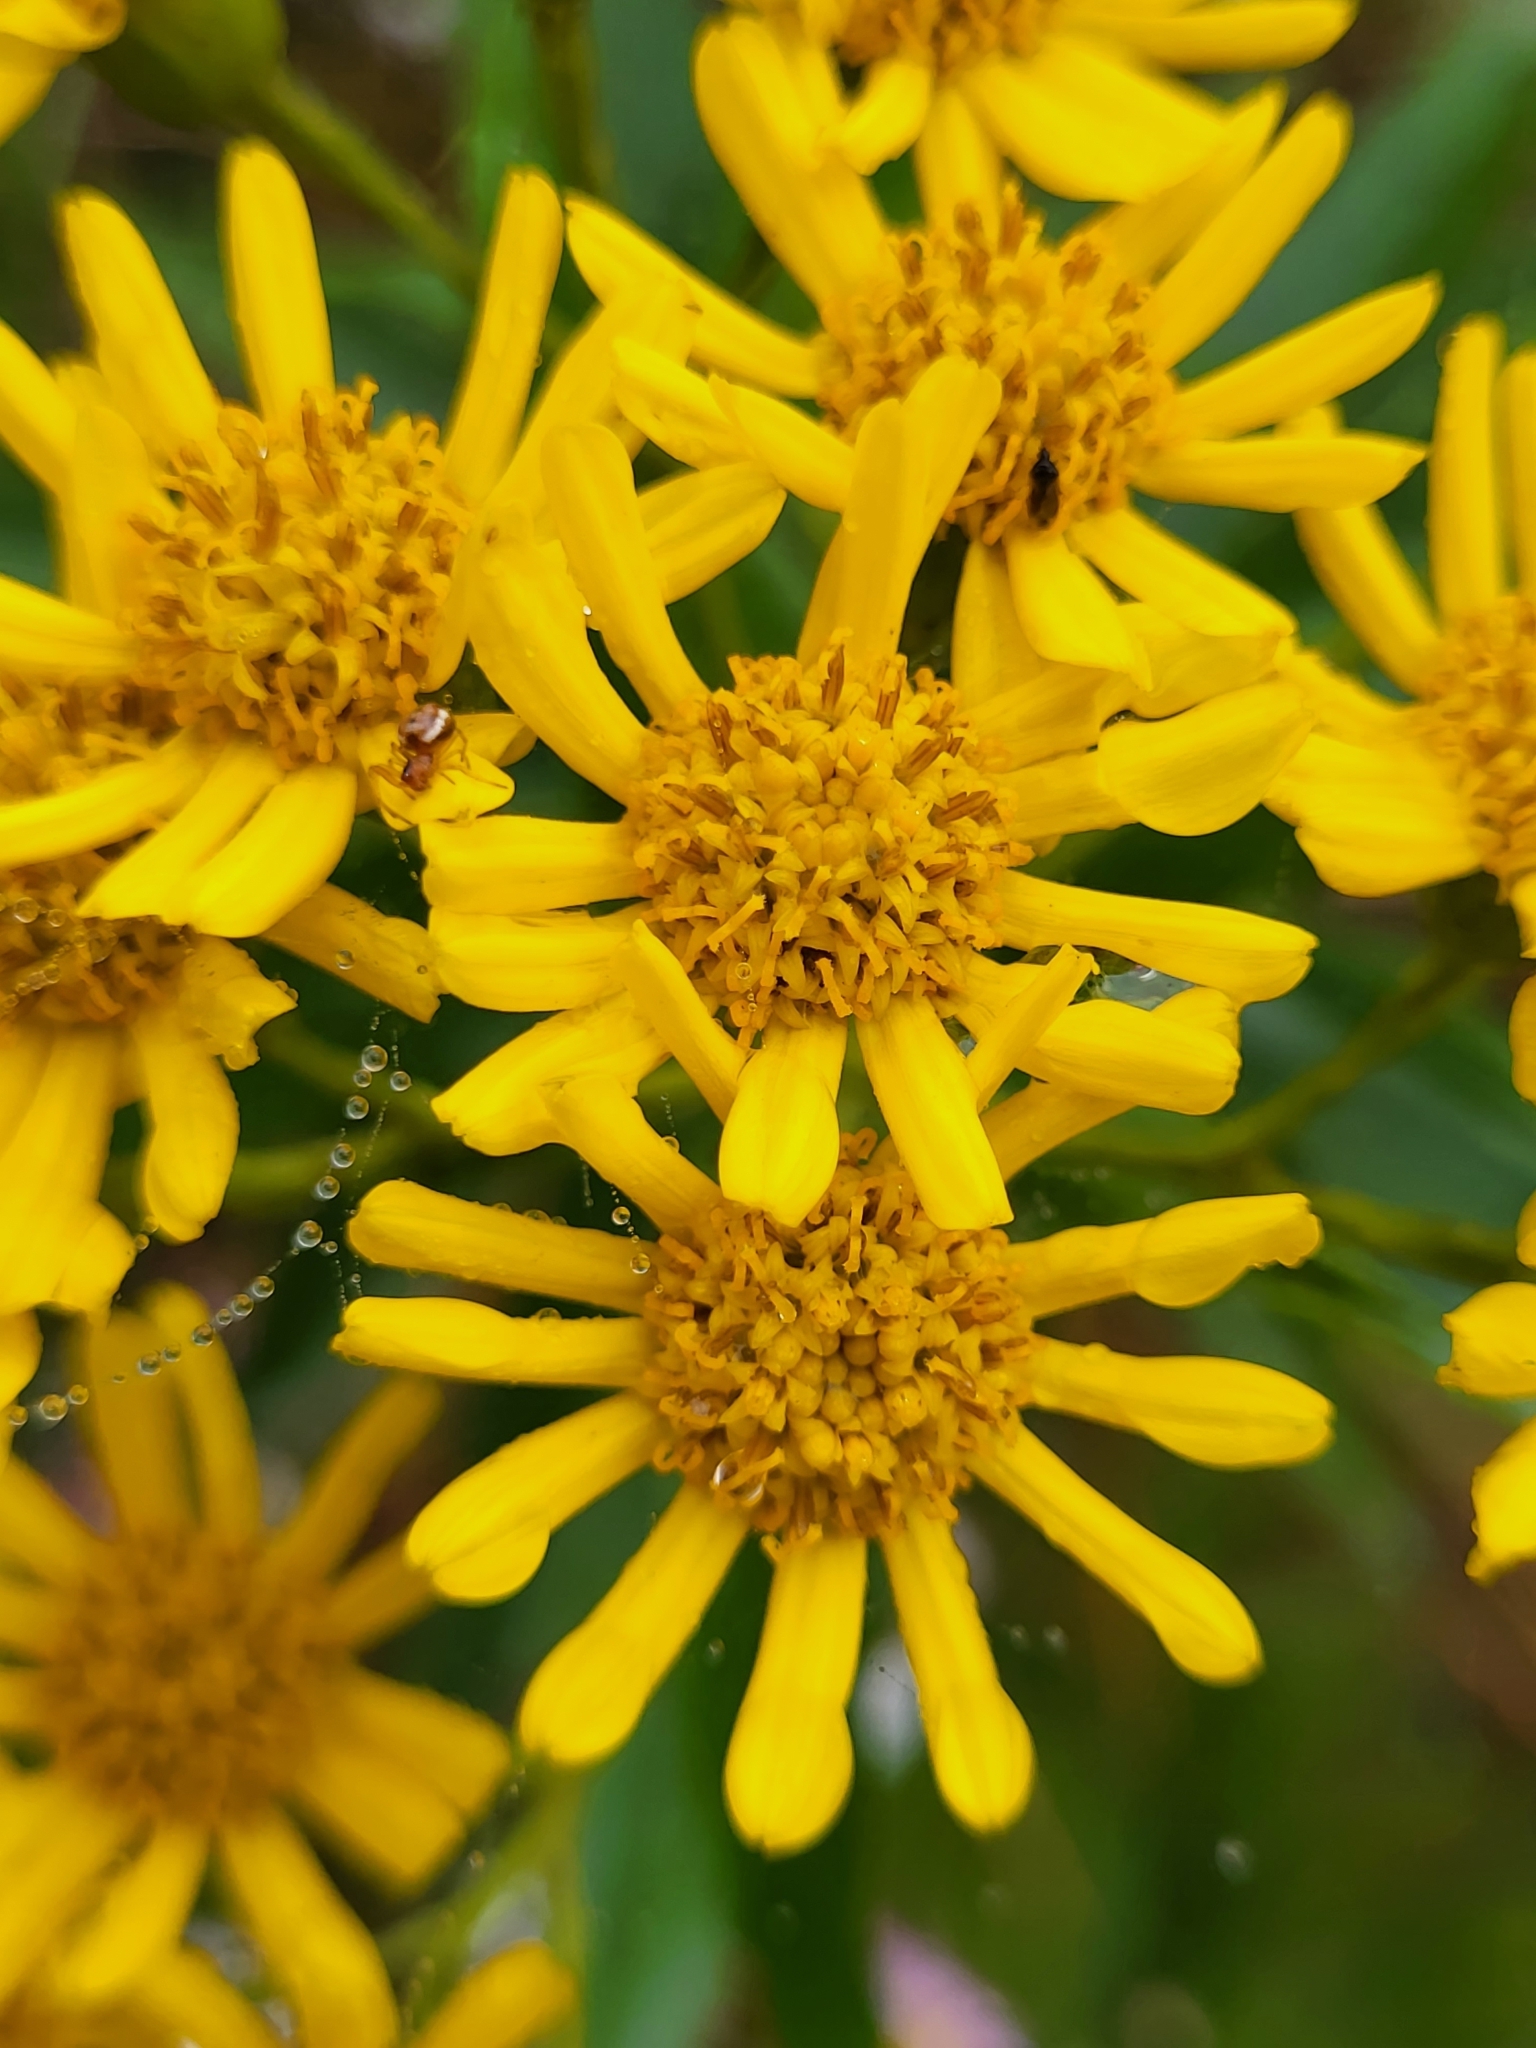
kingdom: Plantae
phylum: Tracheophyta
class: Magnoliopsida
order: Asterales
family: Asteraceae
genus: Faujasia
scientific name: Faujasia salicifolia
